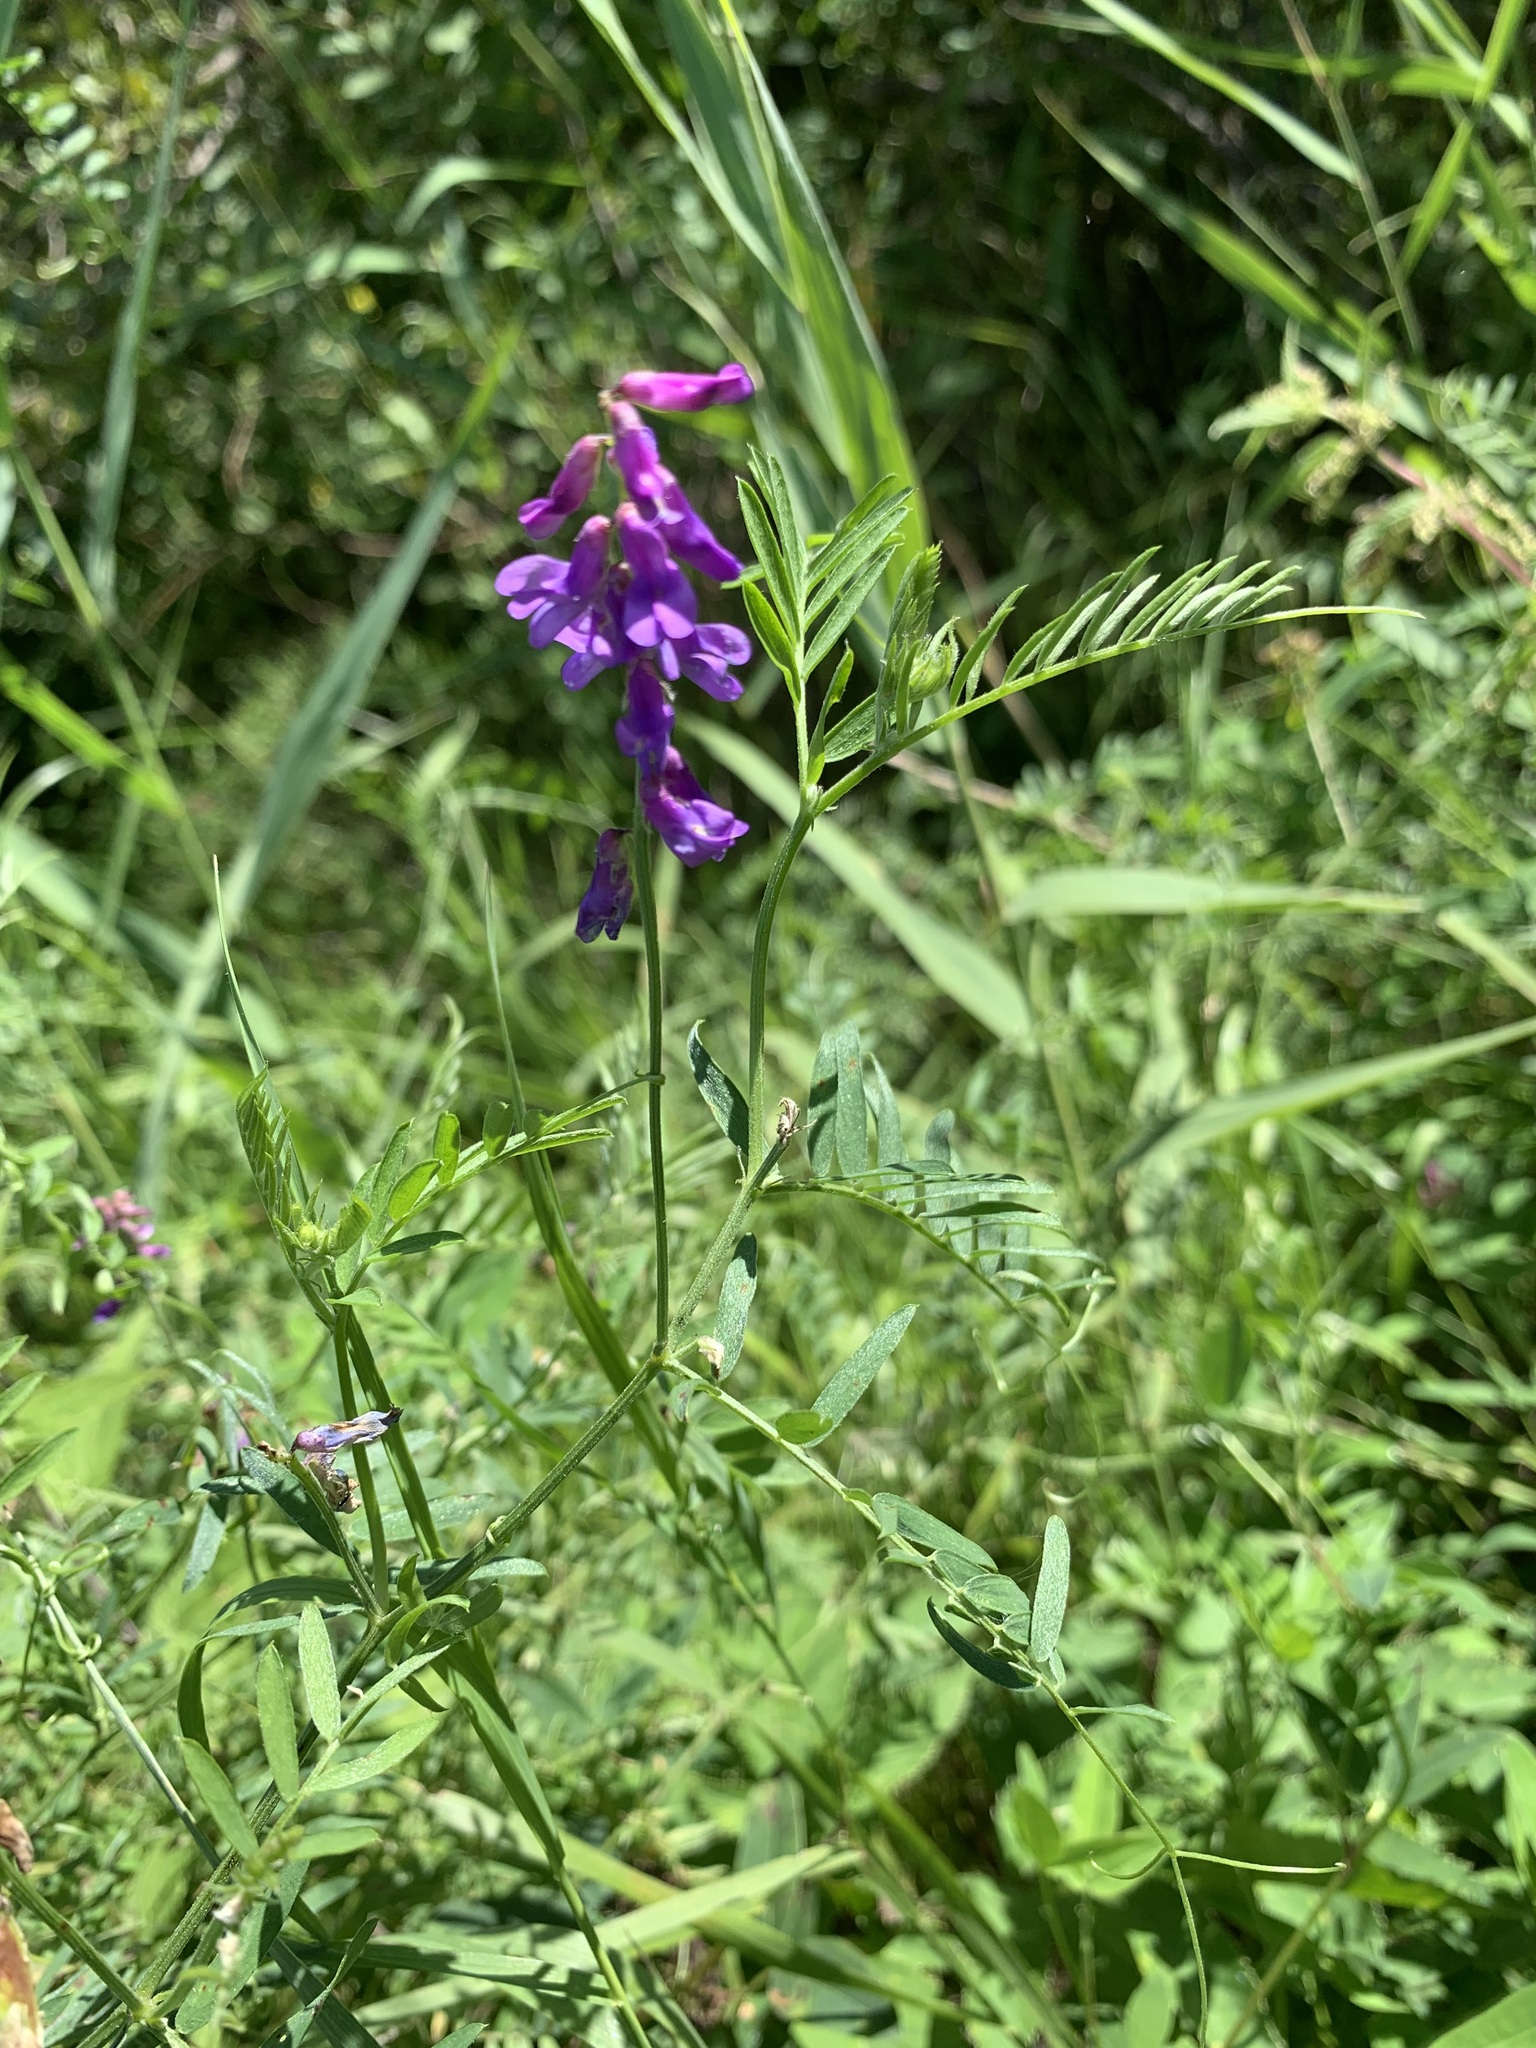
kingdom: Plantae
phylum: Tracheophyta
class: Magnoliopsida
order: Fabales
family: Fabaceae
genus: Vicia
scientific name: Vicia cracca
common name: Bird vetch
